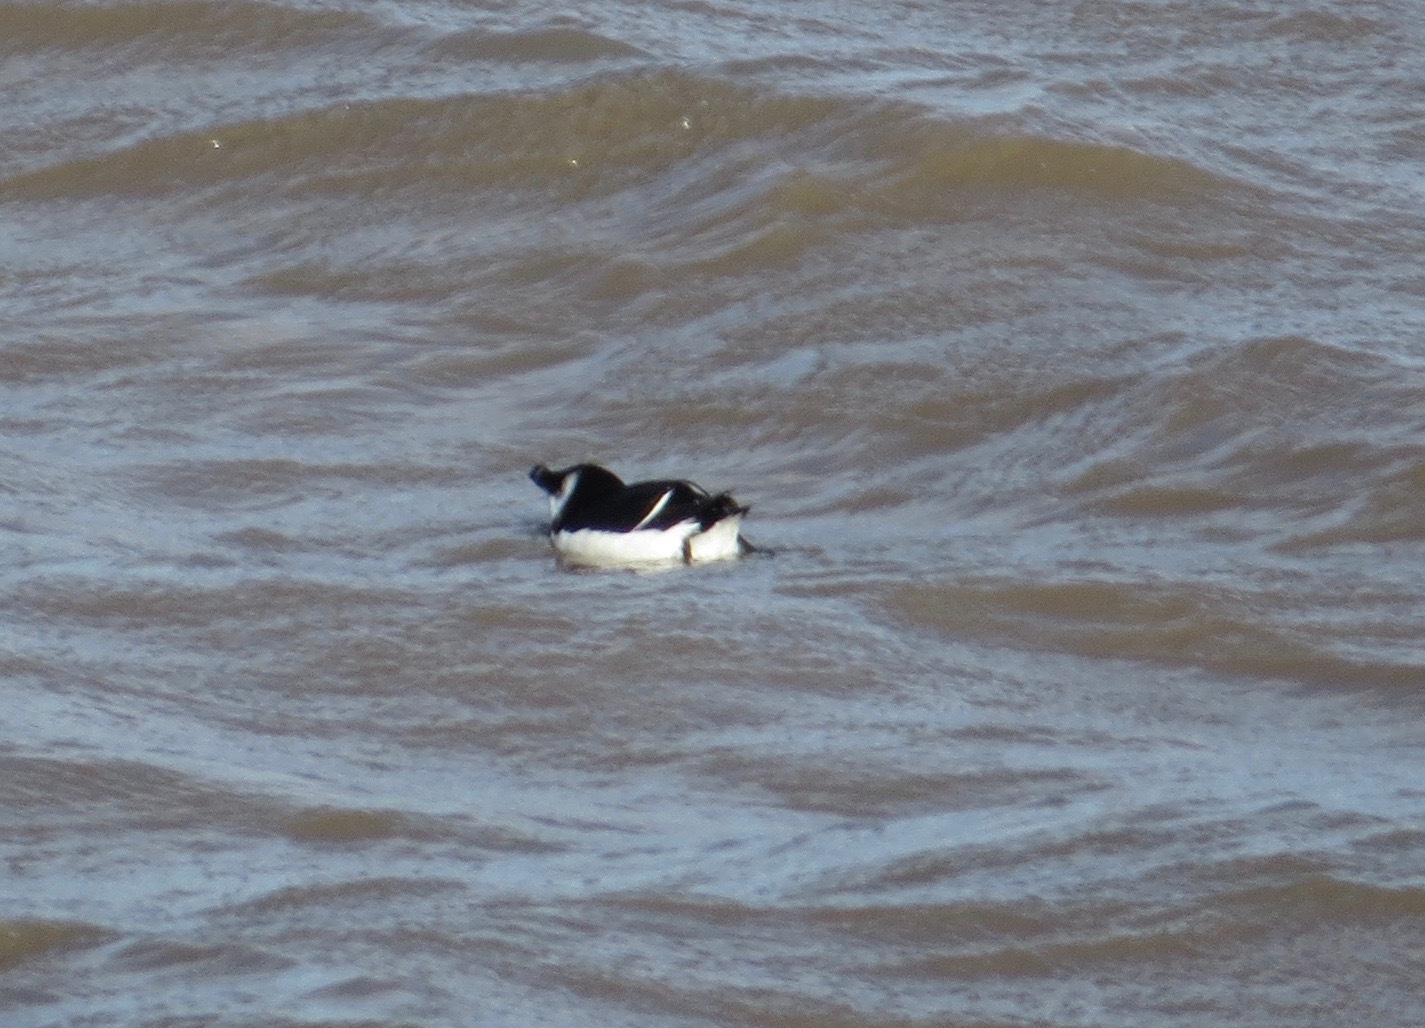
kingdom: Animalia
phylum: Chordata
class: Aves
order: Charadriiformes
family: Alcidae
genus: Alca
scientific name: Alca torda
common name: Razorbill
